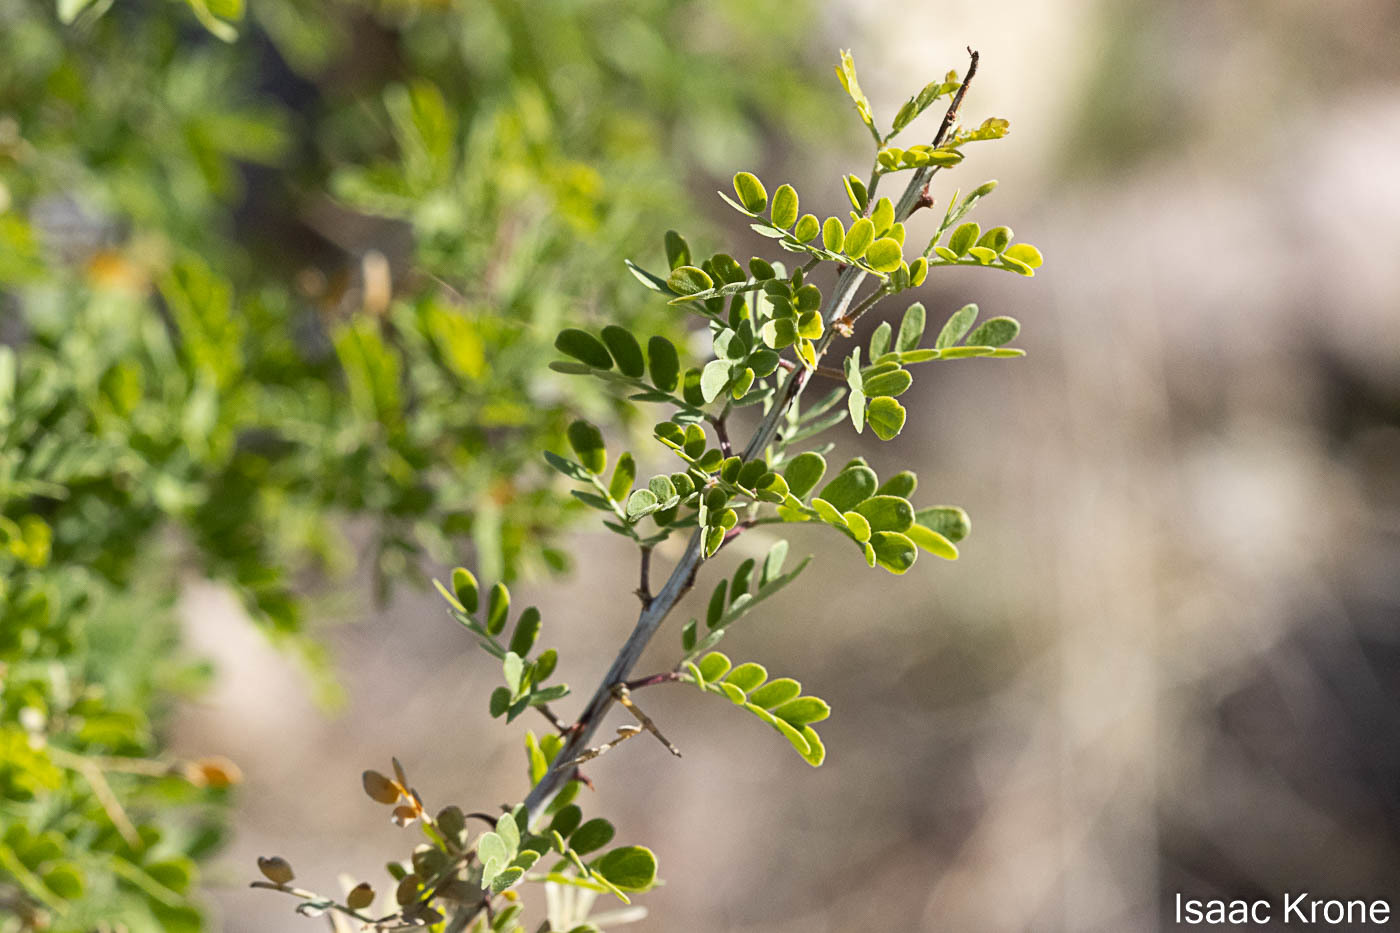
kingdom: Plantae
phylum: Tracheophyta
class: Magnoliopsida
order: Fabales
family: Fabaceae
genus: Senegalia
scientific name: Senegalia greggii
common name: Texas-mimosa
